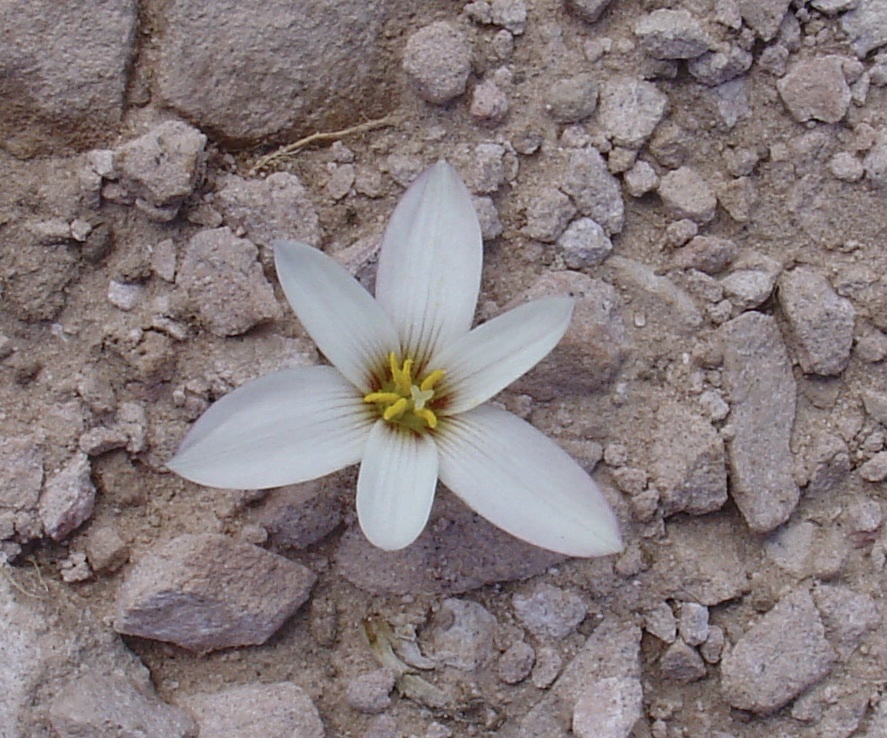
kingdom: Plantae
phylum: Tracheophyta
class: Liliopsida
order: Asparagales
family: Amaryllidaceae
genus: Zephyranthes
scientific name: Zephyranthes andina
